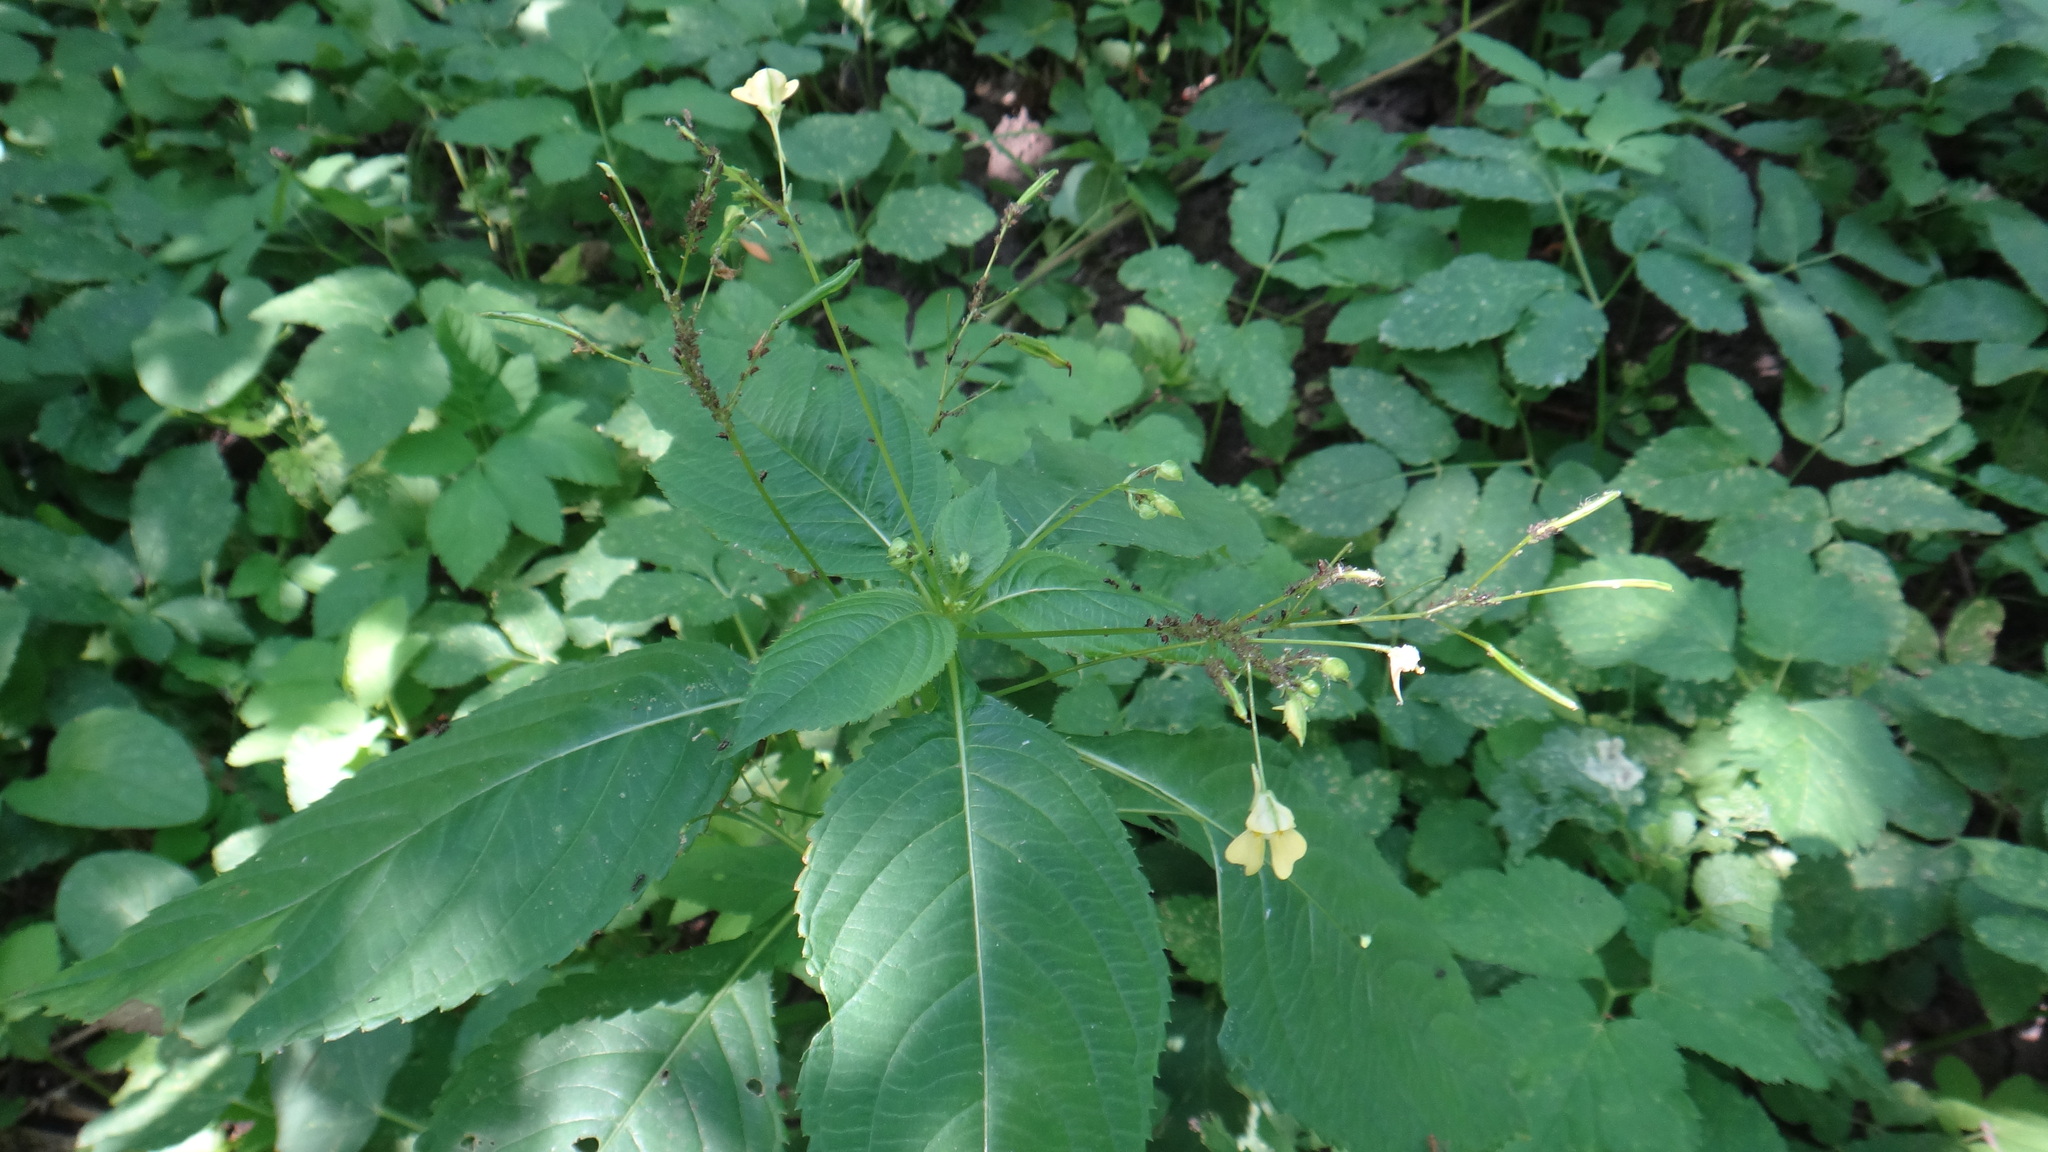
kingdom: Plantae
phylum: Tracheophyta
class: Magnoliopsida
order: Ericales
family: Balsaminaceae
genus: Impatiens
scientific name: Impatiens parviflora
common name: Small balsam
